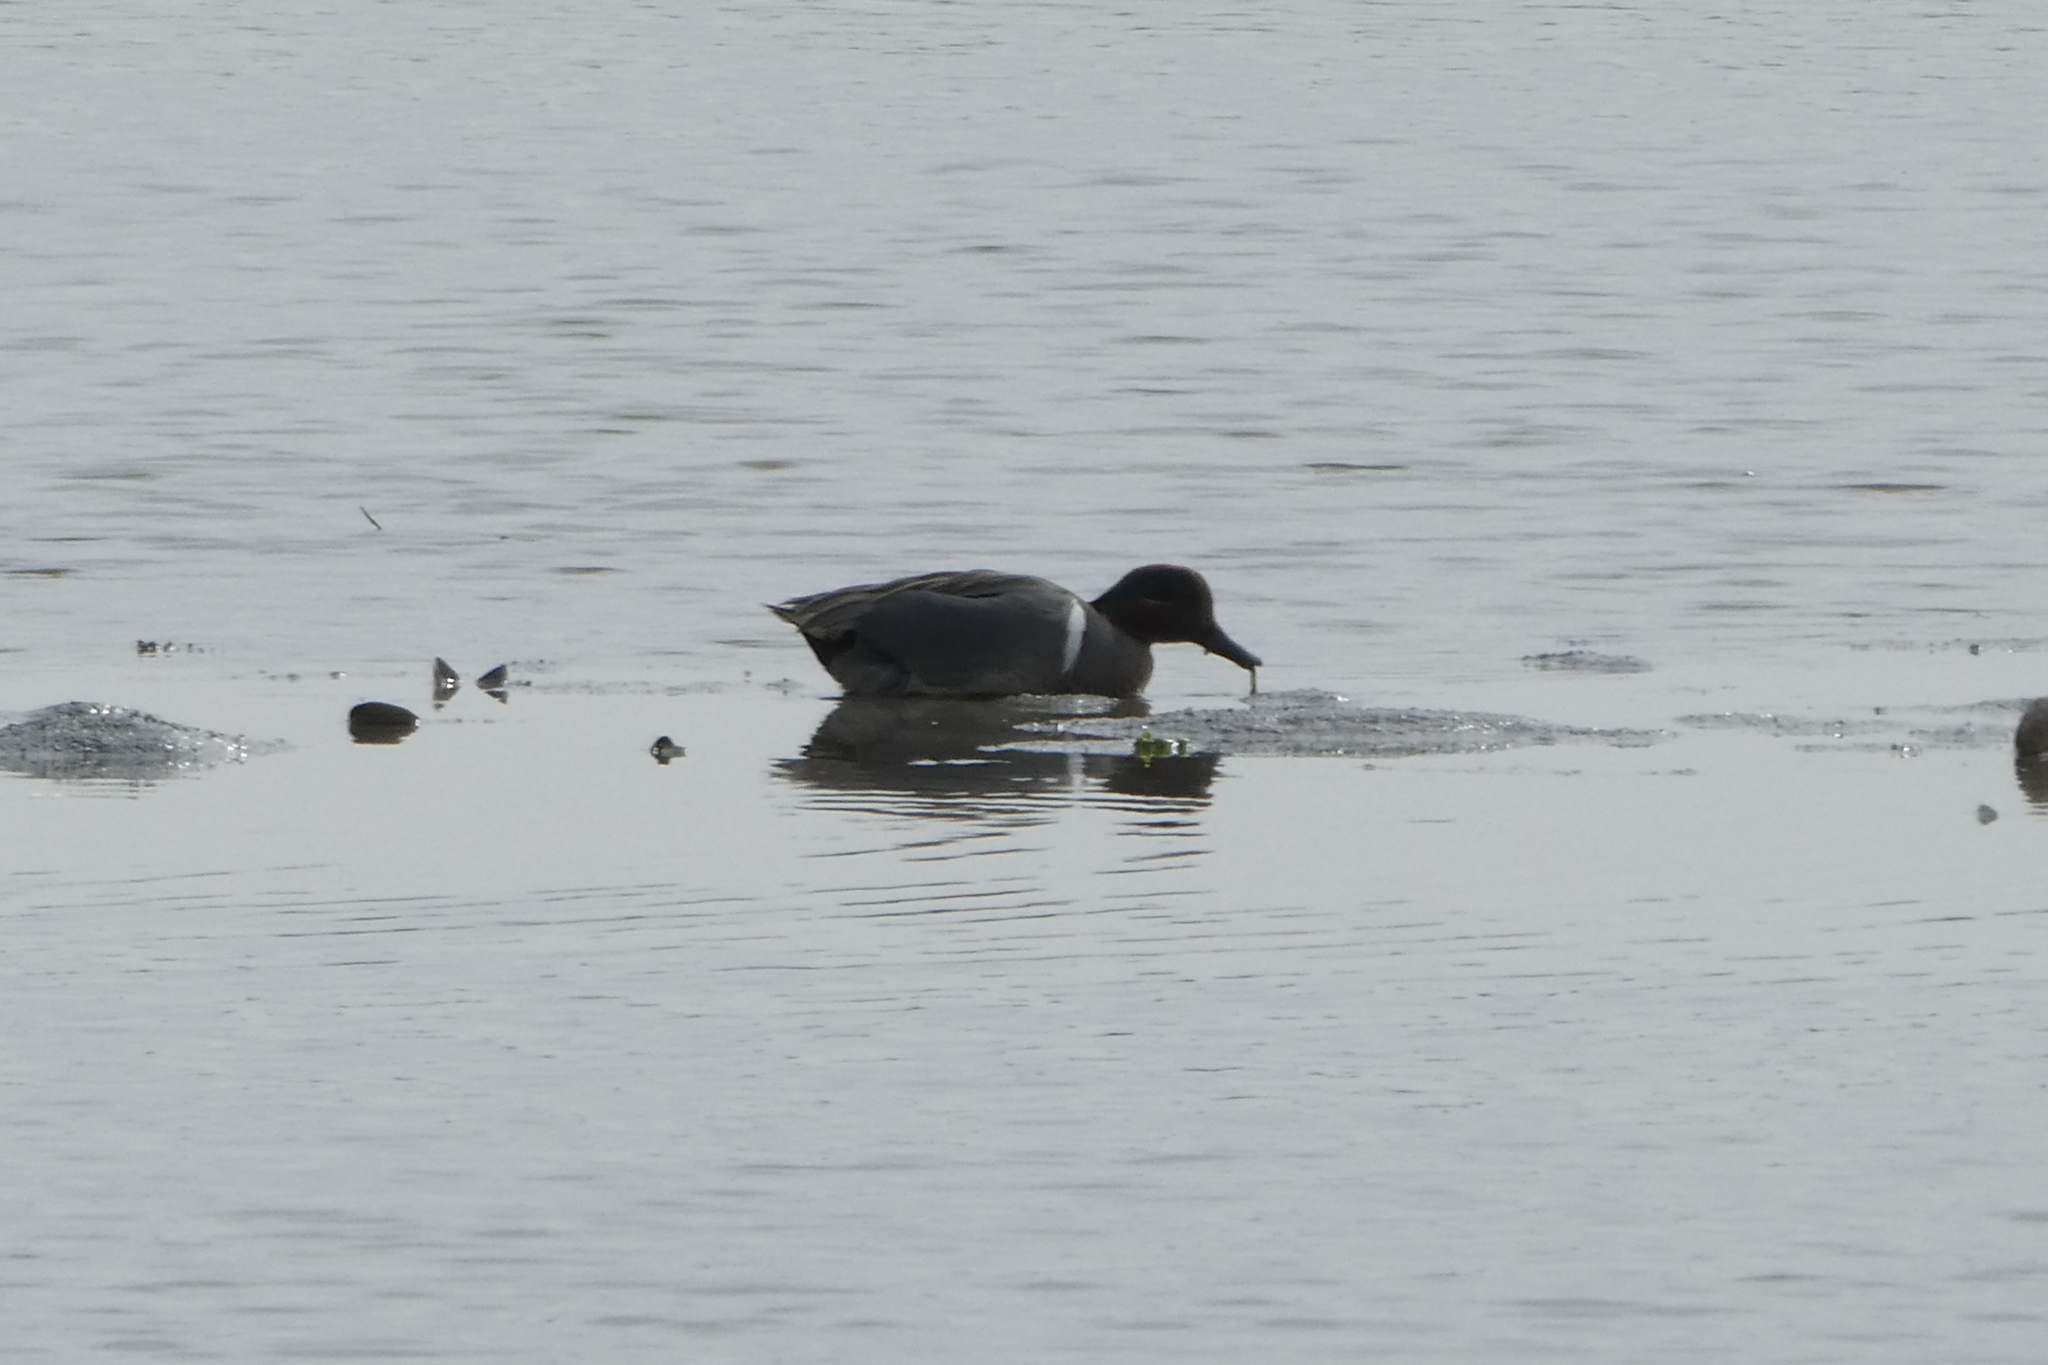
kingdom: Animalia
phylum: Chordata
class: Aves
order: Anseriformes
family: Anatidae
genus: Anas
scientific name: Anas carolinensis
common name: Green-winged teal
